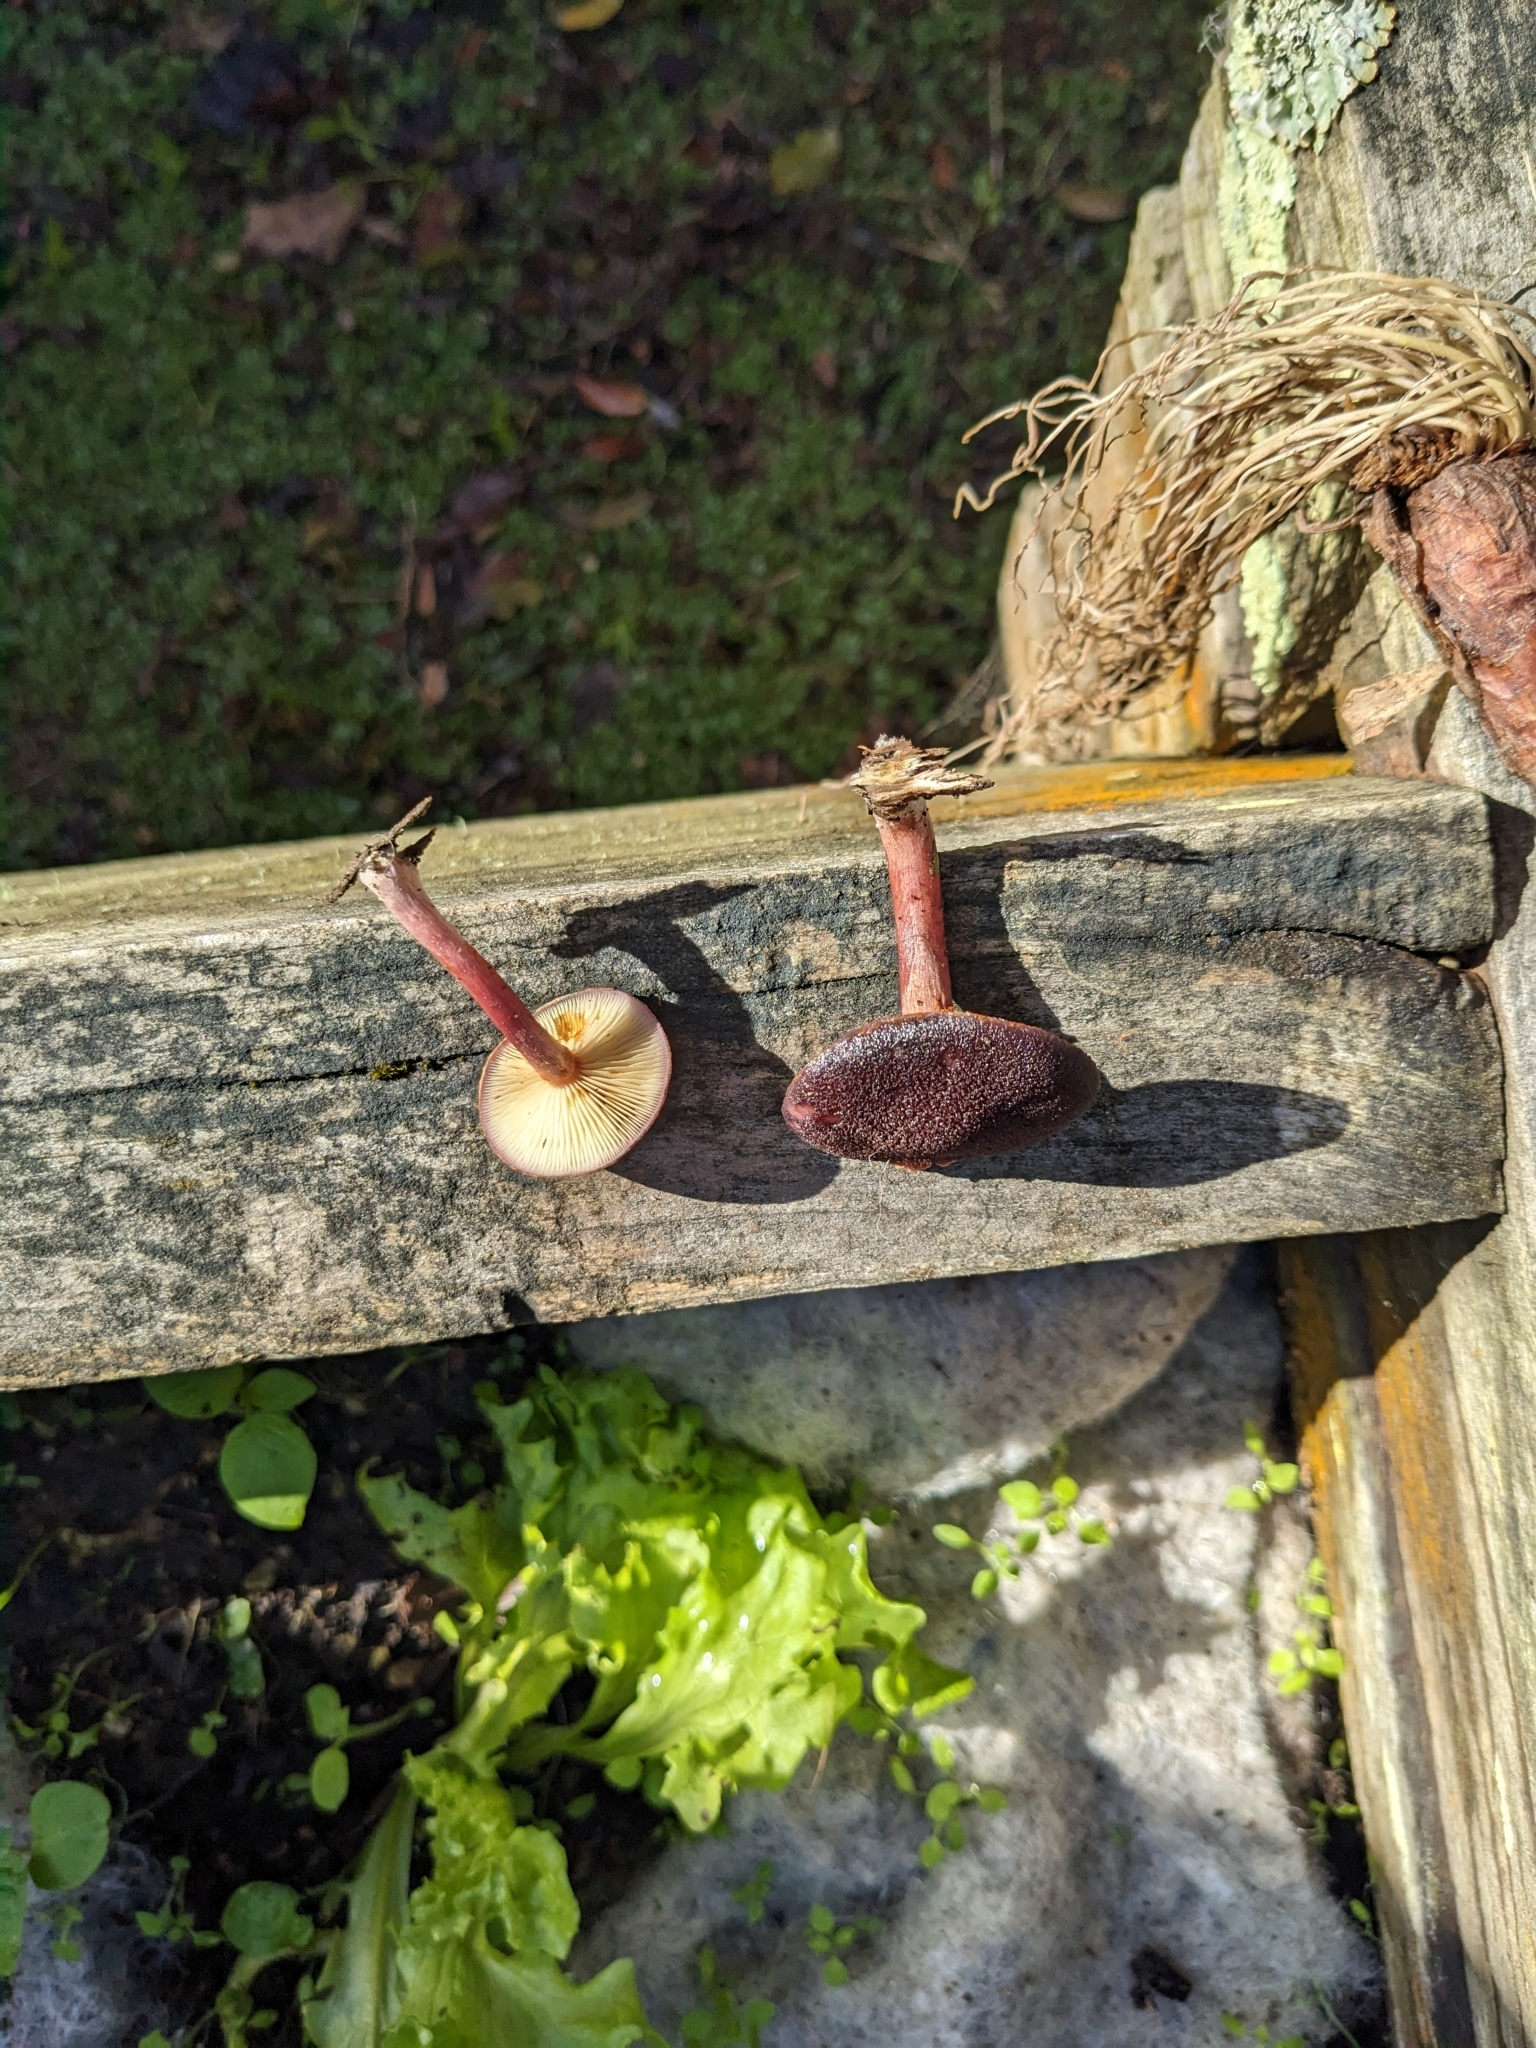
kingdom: Fungi
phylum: Basidiomycota
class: Agaricomycetes
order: Agaricales
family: Hymenogastraceae
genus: Gymnopilus
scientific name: Gymnopilus purpuratus
